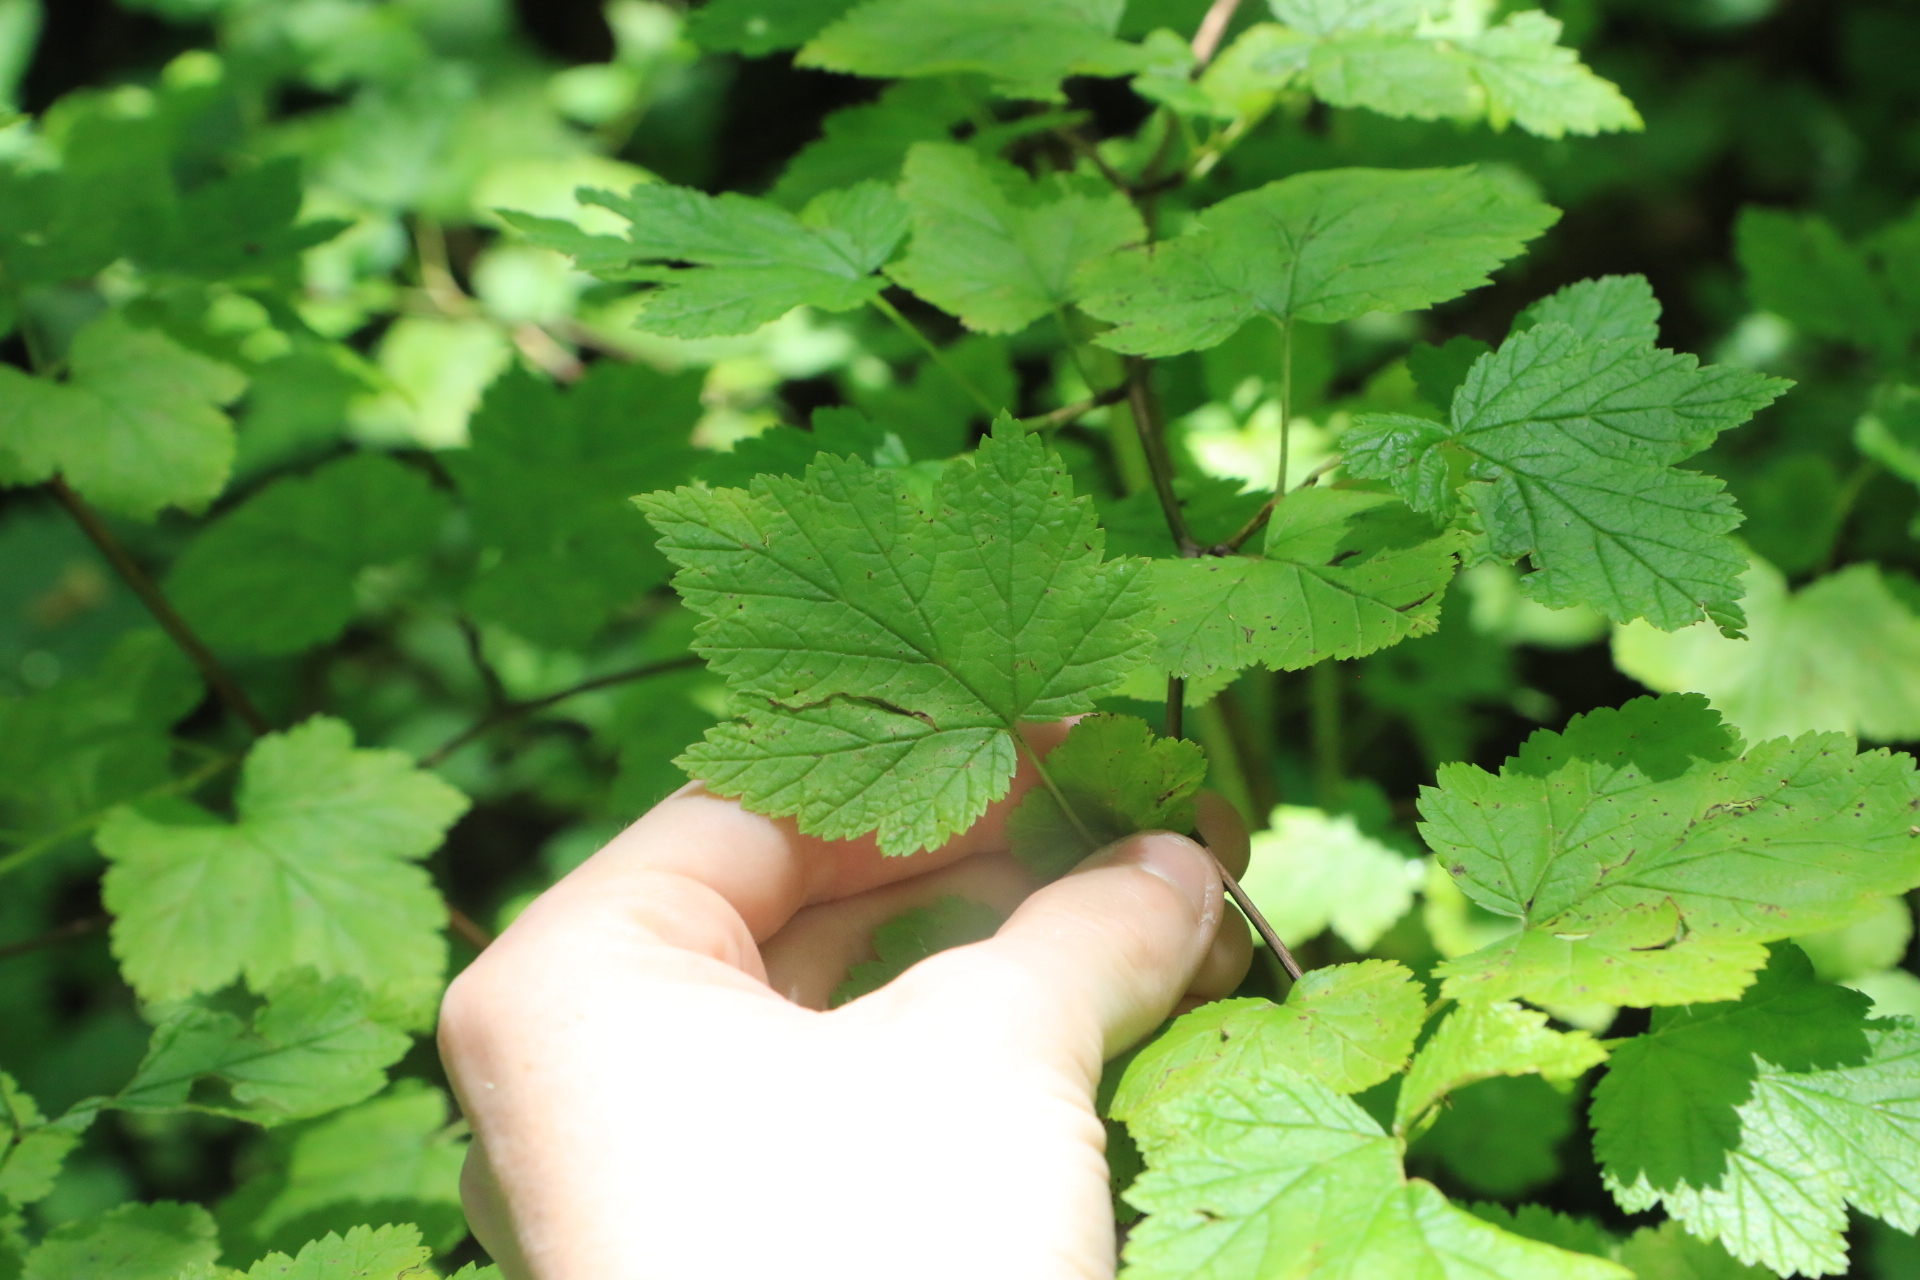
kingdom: Plantae
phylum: Tracheophyta
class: Magnoliopsida
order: Rosales
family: Rosaceae
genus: Physocarpus
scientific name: Physocarpus capitatus
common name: Pacific ninebark
